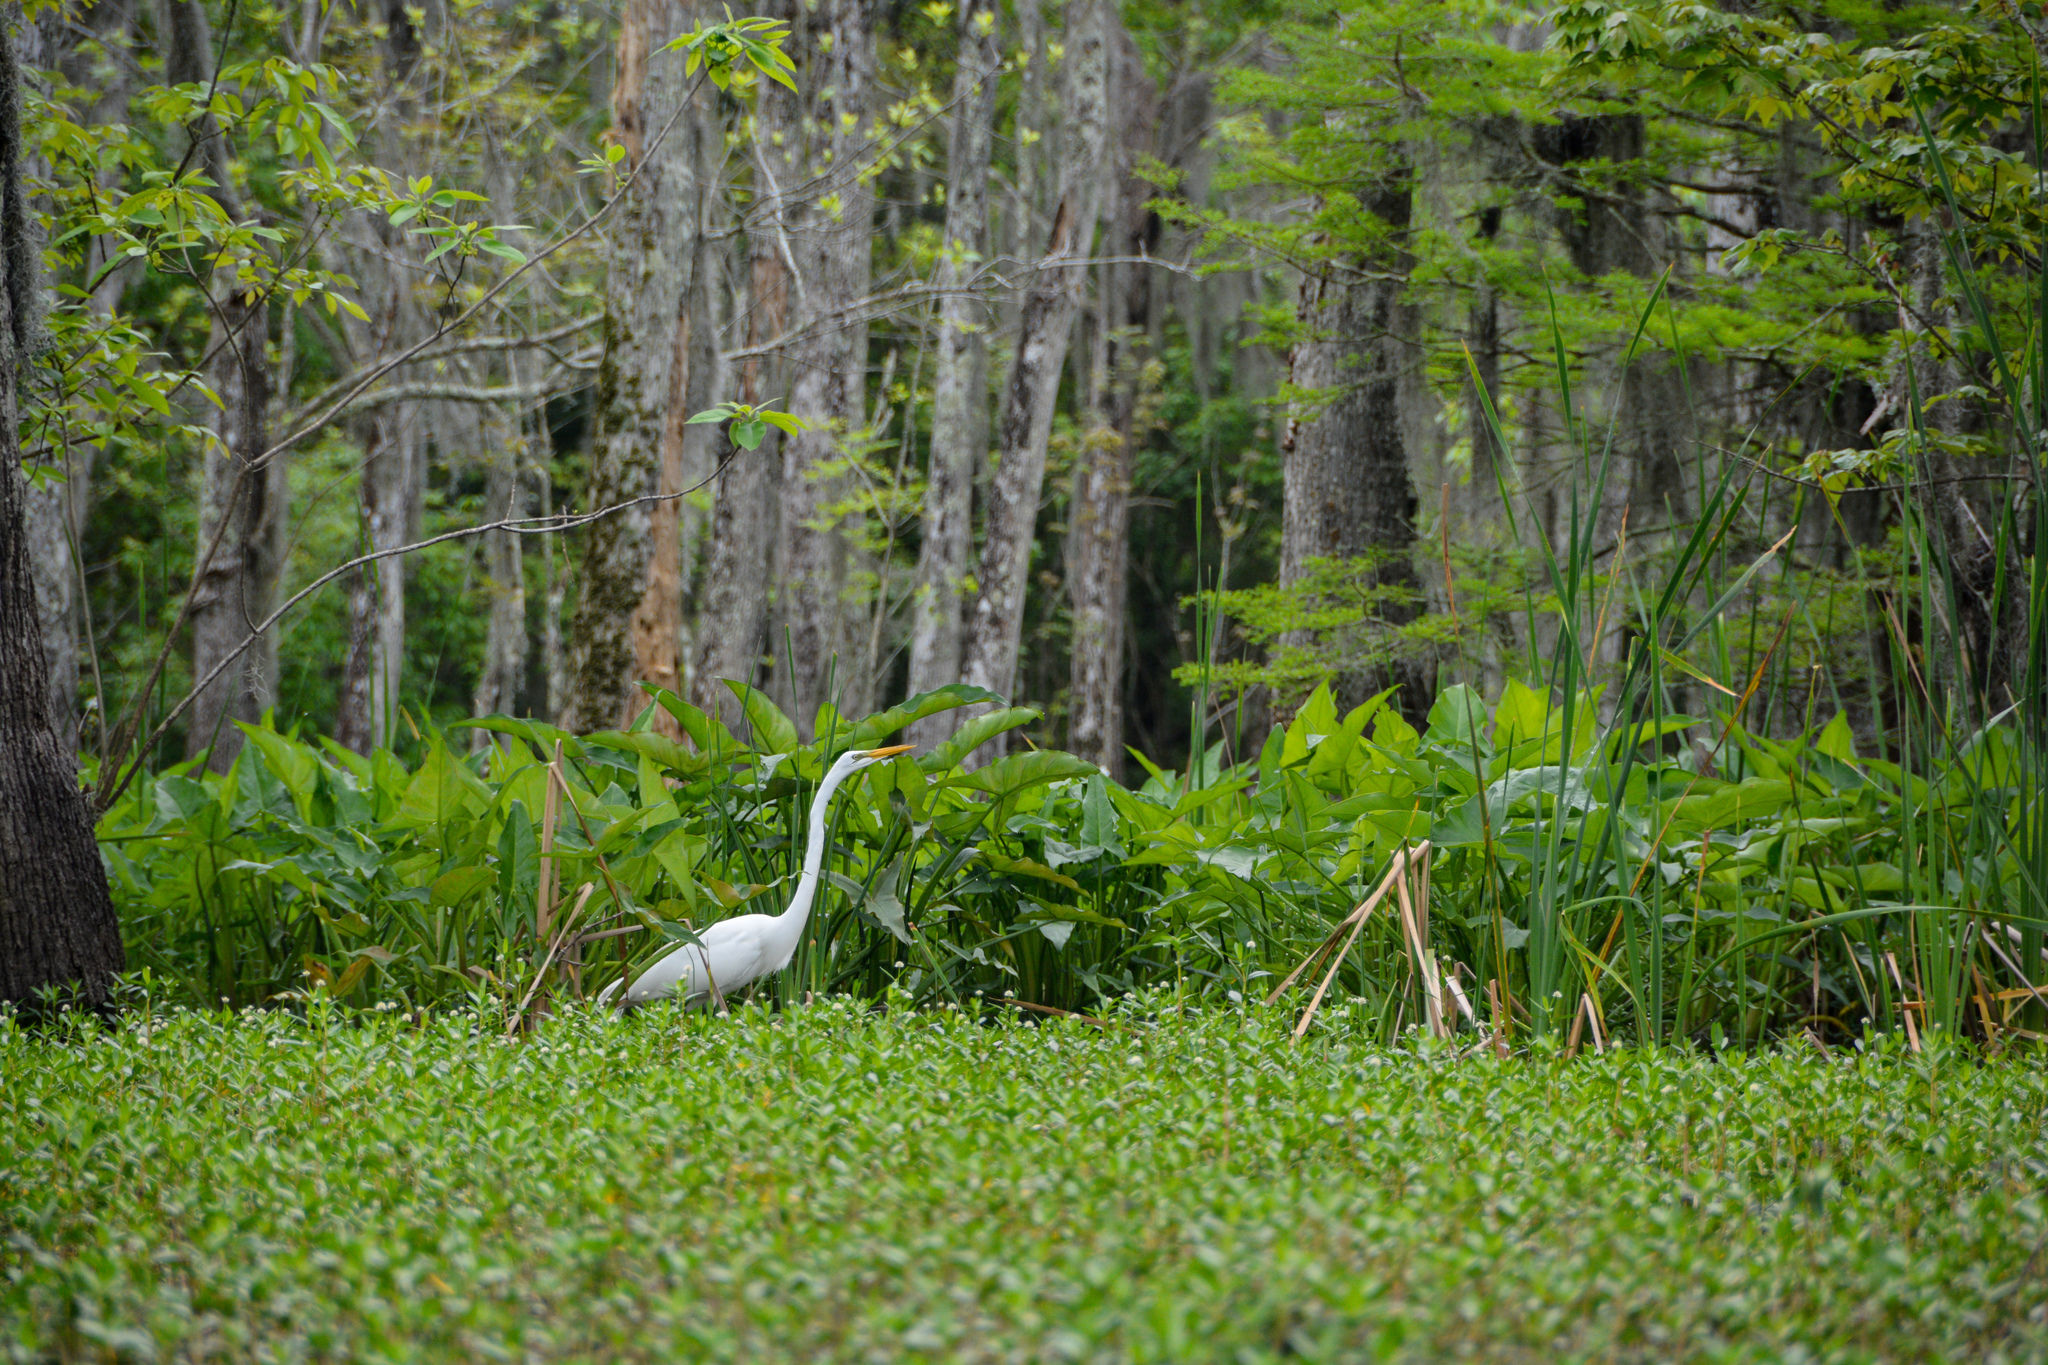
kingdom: Animalia
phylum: Chordata
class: Aves
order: Pelecaniformes
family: Ardeidae
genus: Ardea
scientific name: Ardea alba
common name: Great egret
